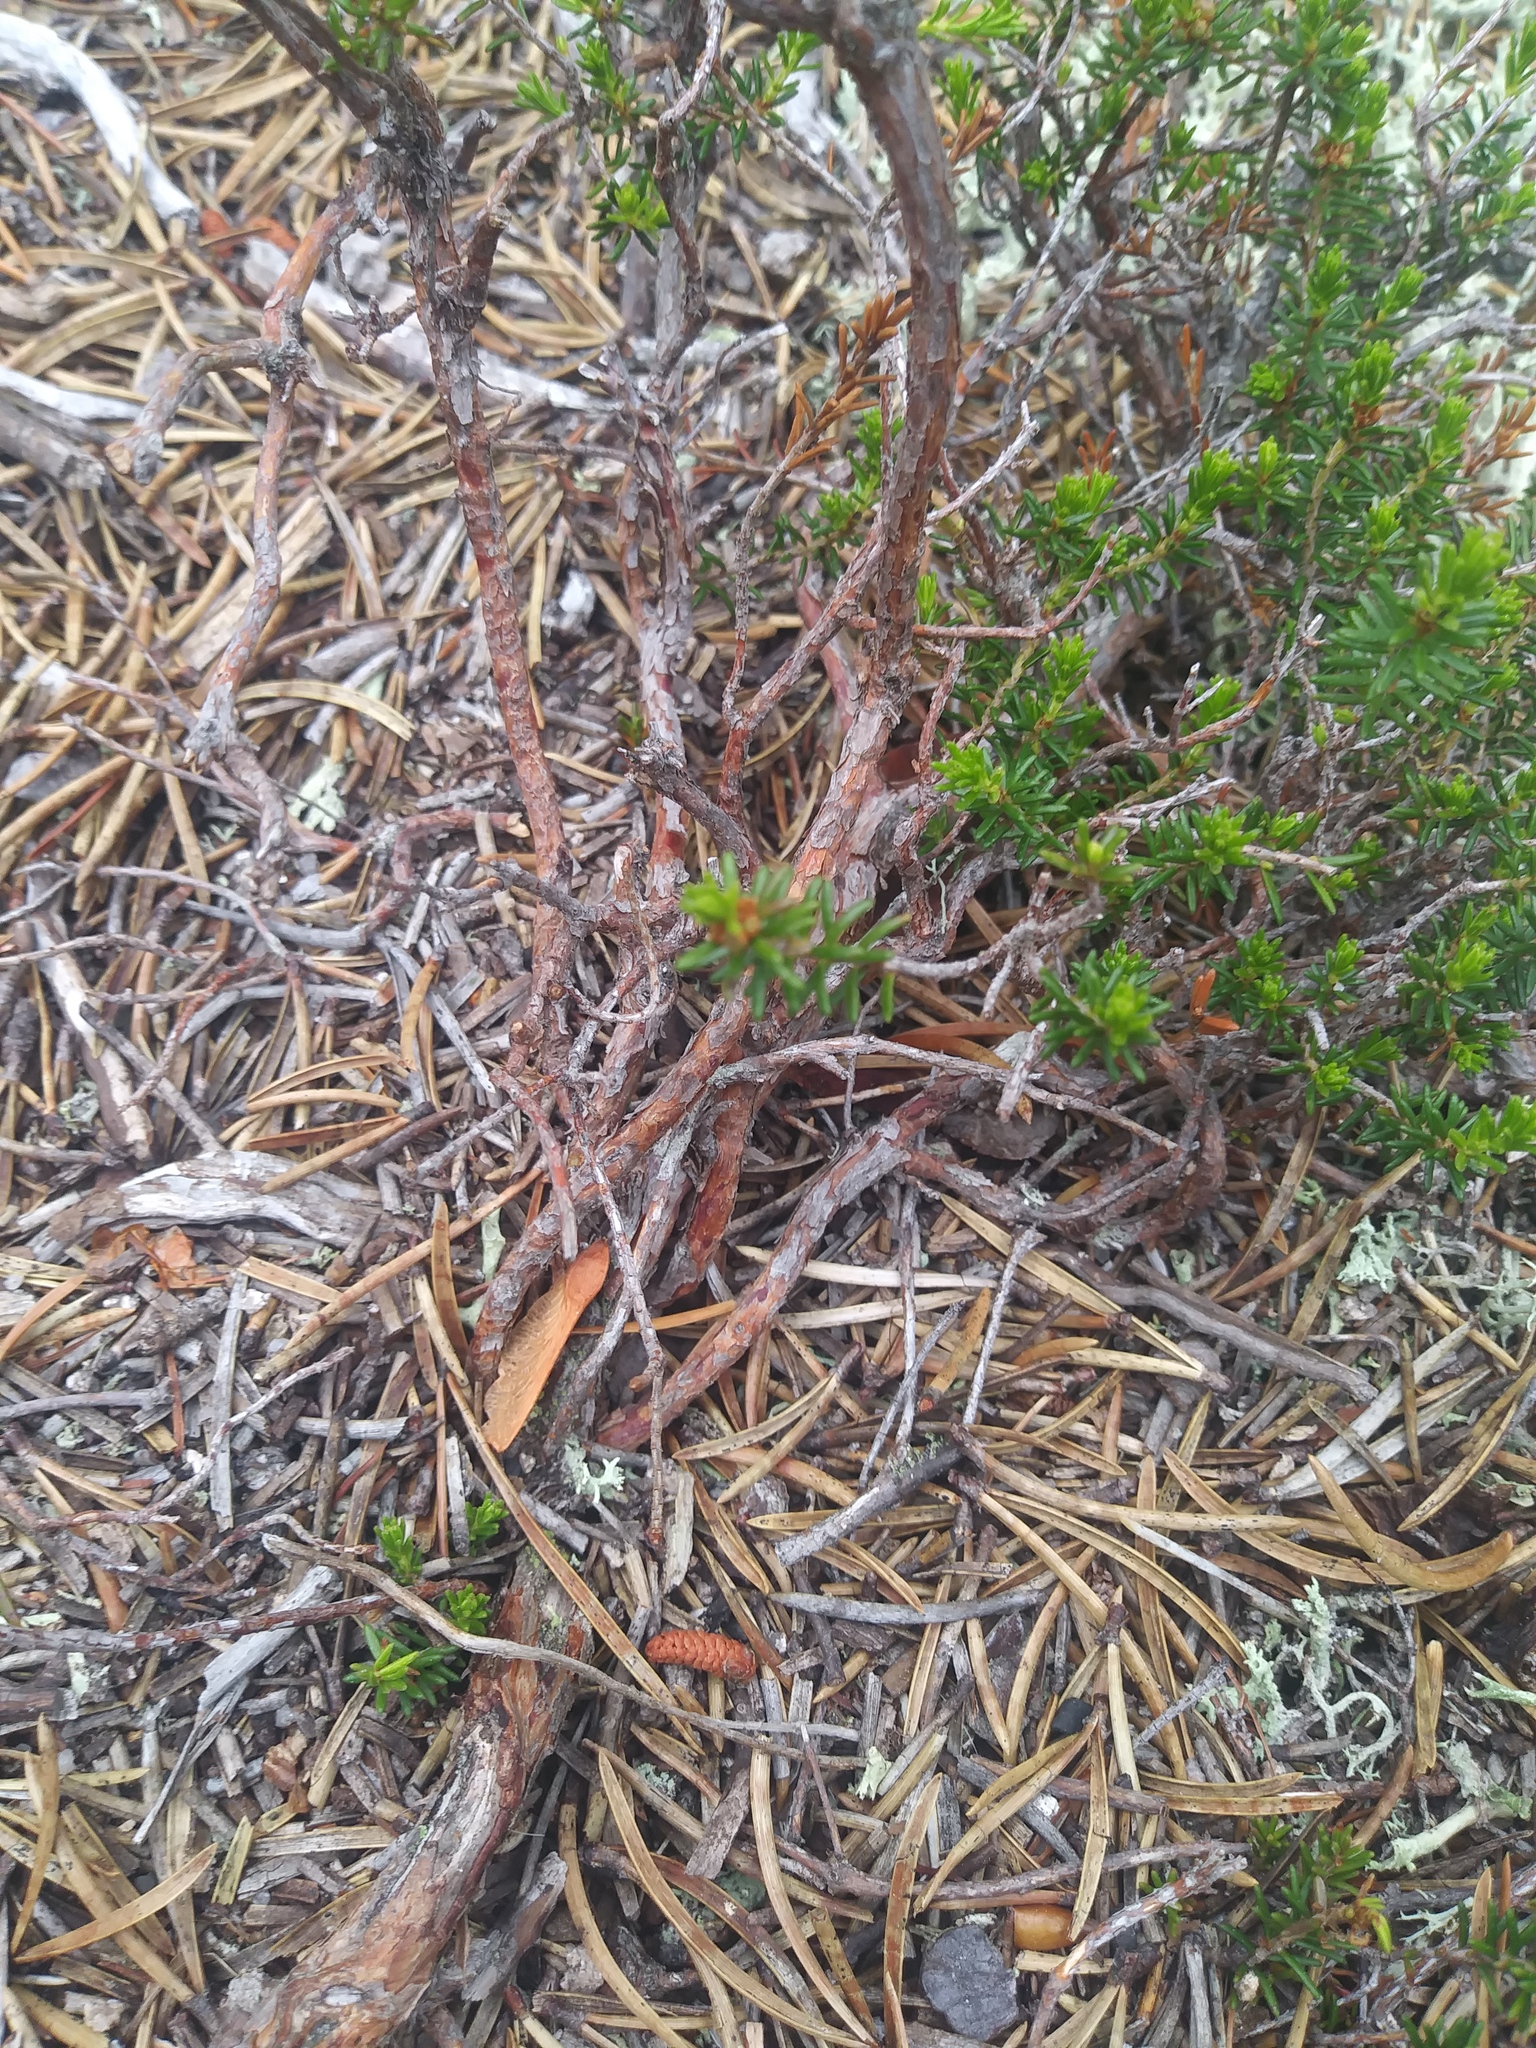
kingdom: Plantae
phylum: Tracheophyta
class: Magnoliopsida
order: Ericales
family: Ericaceae
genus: Corema
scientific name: Corema conradii
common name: Broom-crowberry
